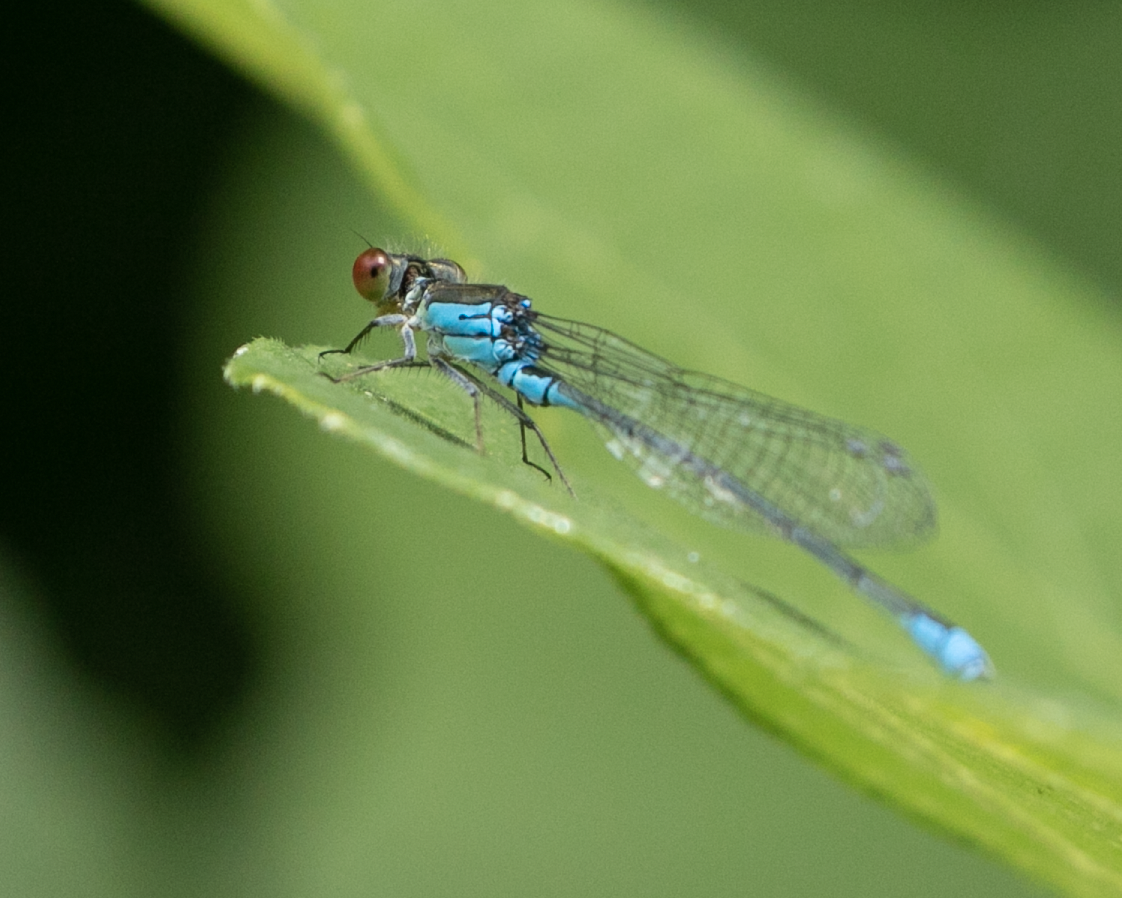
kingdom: Animalia
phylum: Arthropoda
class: Insecta
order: Odonata
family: Coenagrionidae
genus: Erythromma
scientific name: Erythromma viridulum
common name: Small red-eyed damselfly
